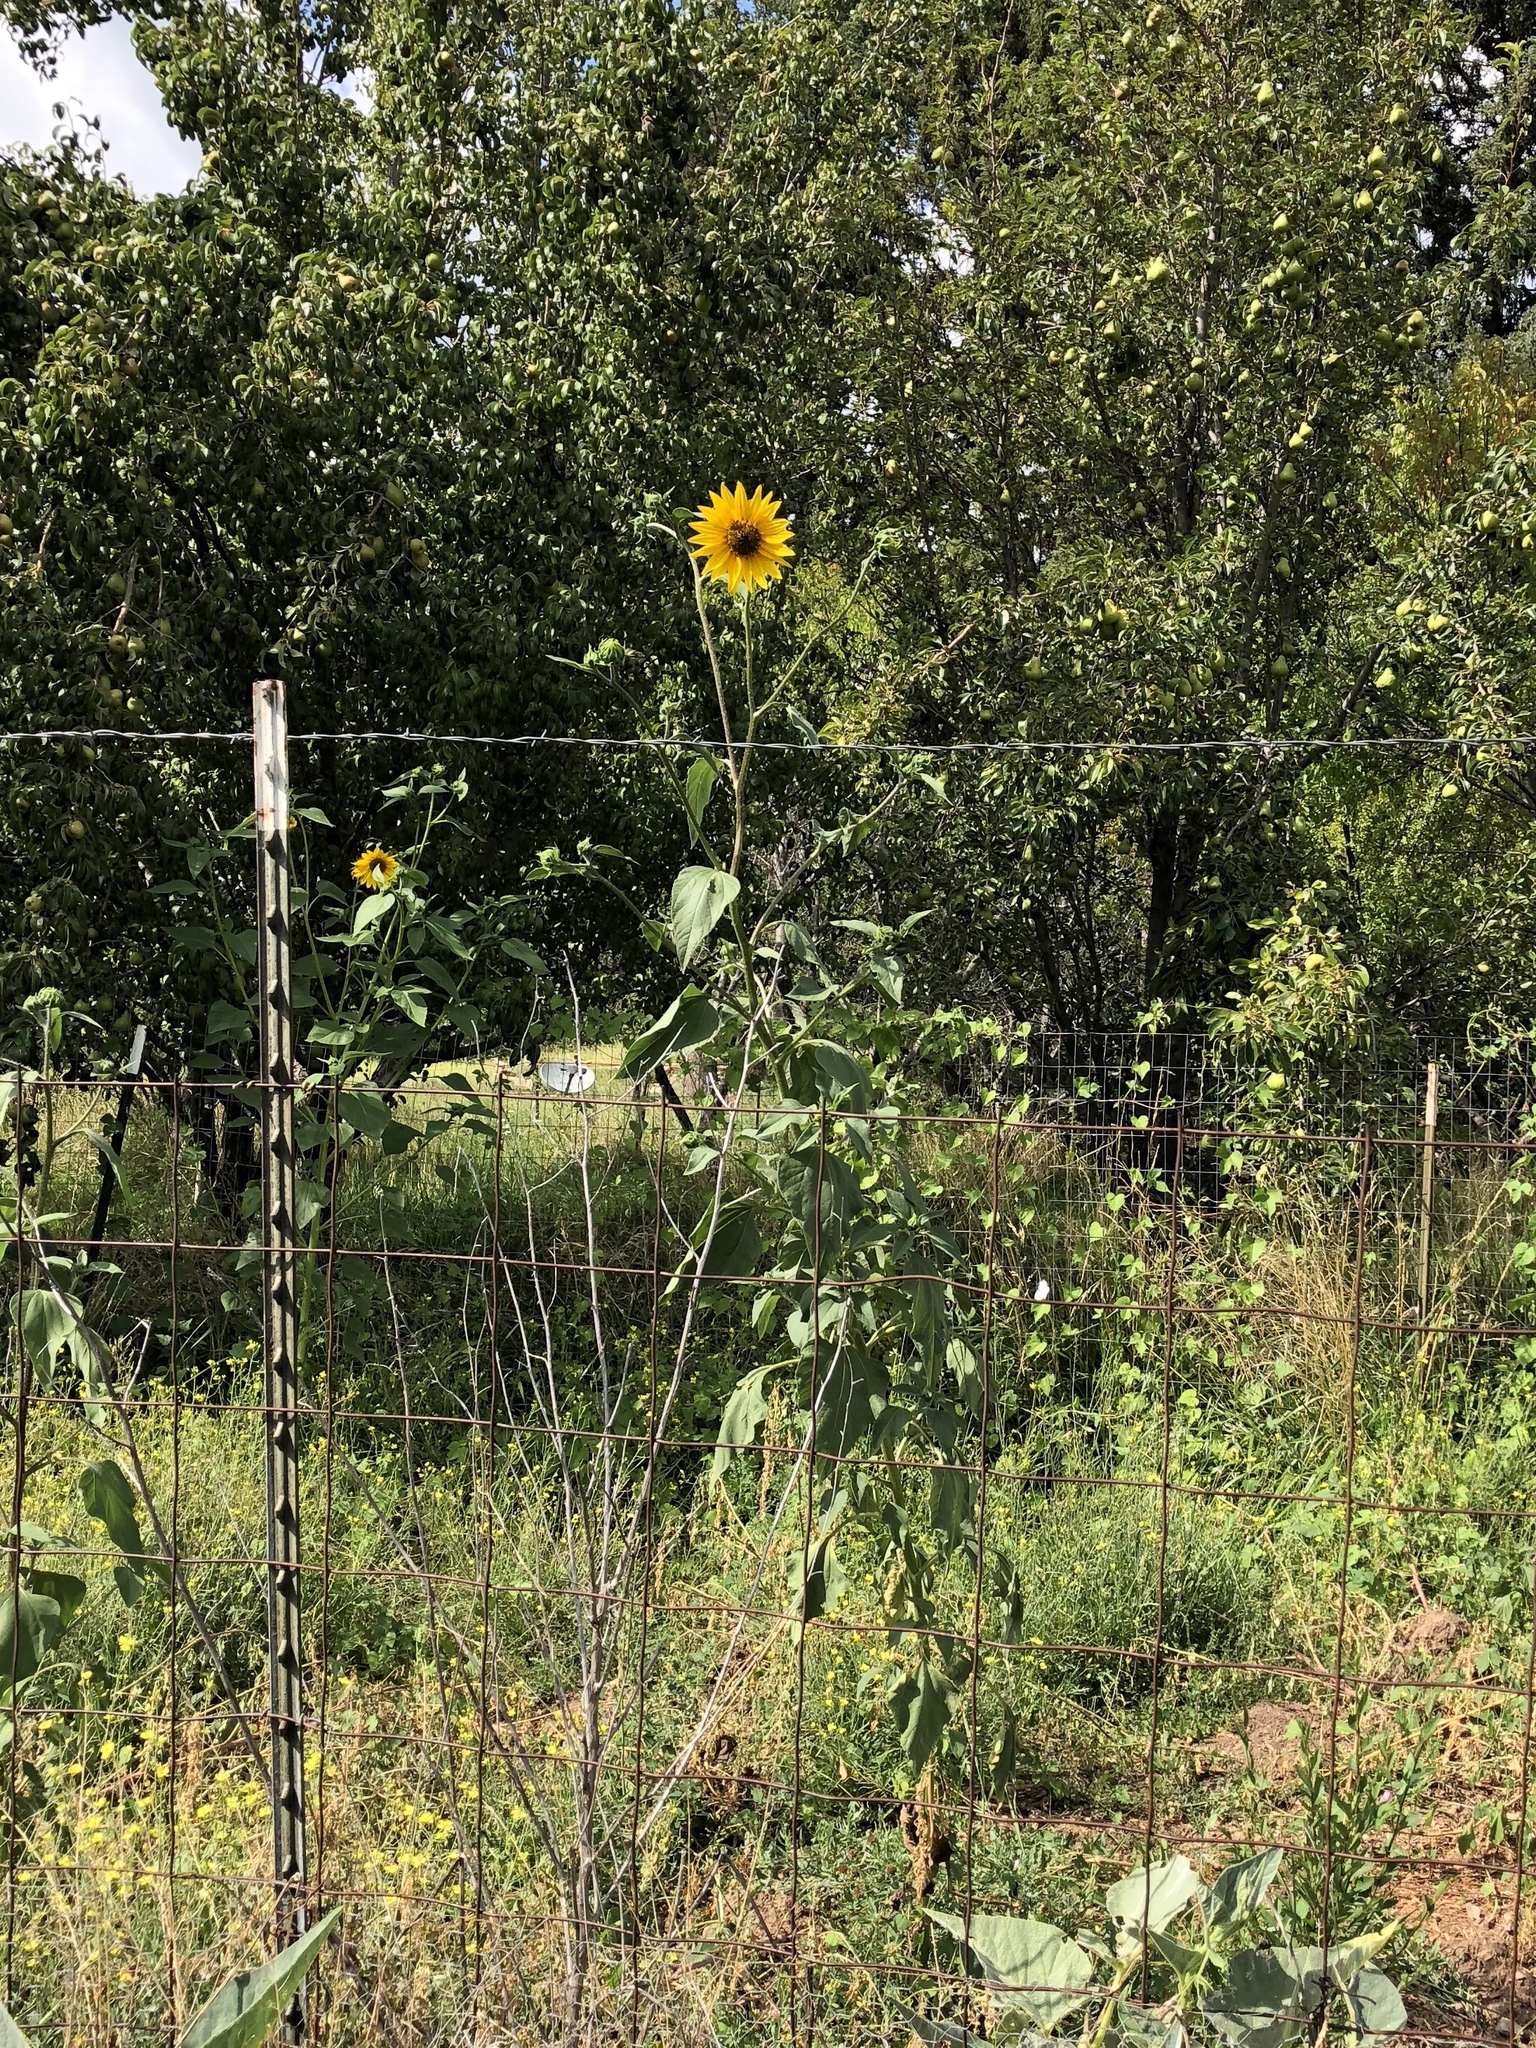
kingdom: Plantae
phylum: Tracheophyta
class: Magnoliopsida
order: Asterales
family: Asteraceae
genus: Helianthus
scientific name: Helianthus annuus
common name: Sunflower
